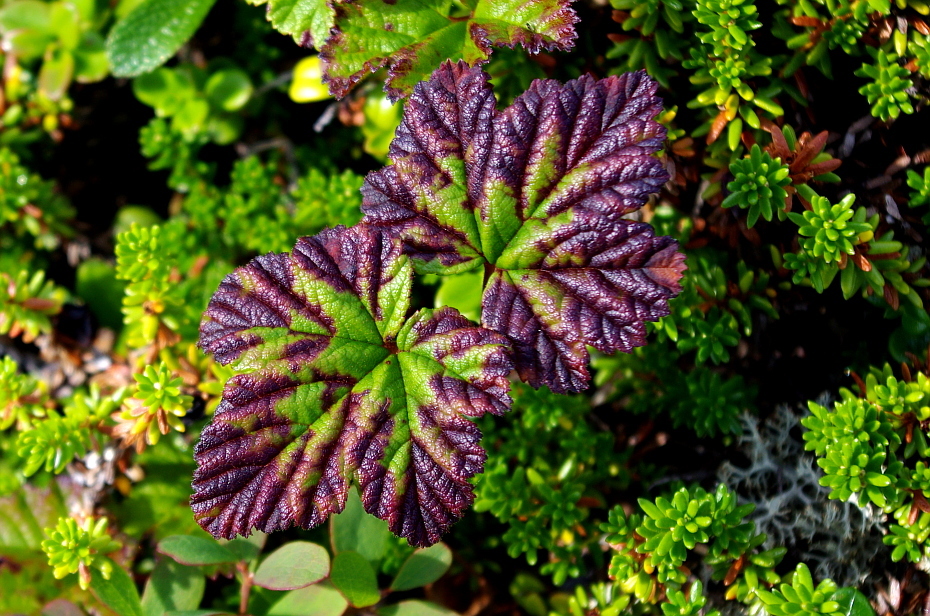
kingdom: Plantae
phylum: Tracheophyta
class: Magnoliopsida
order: Rosales
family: Rosaceae
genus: Rubus
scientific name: Rubus chamaemorus
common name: Cloudberry
